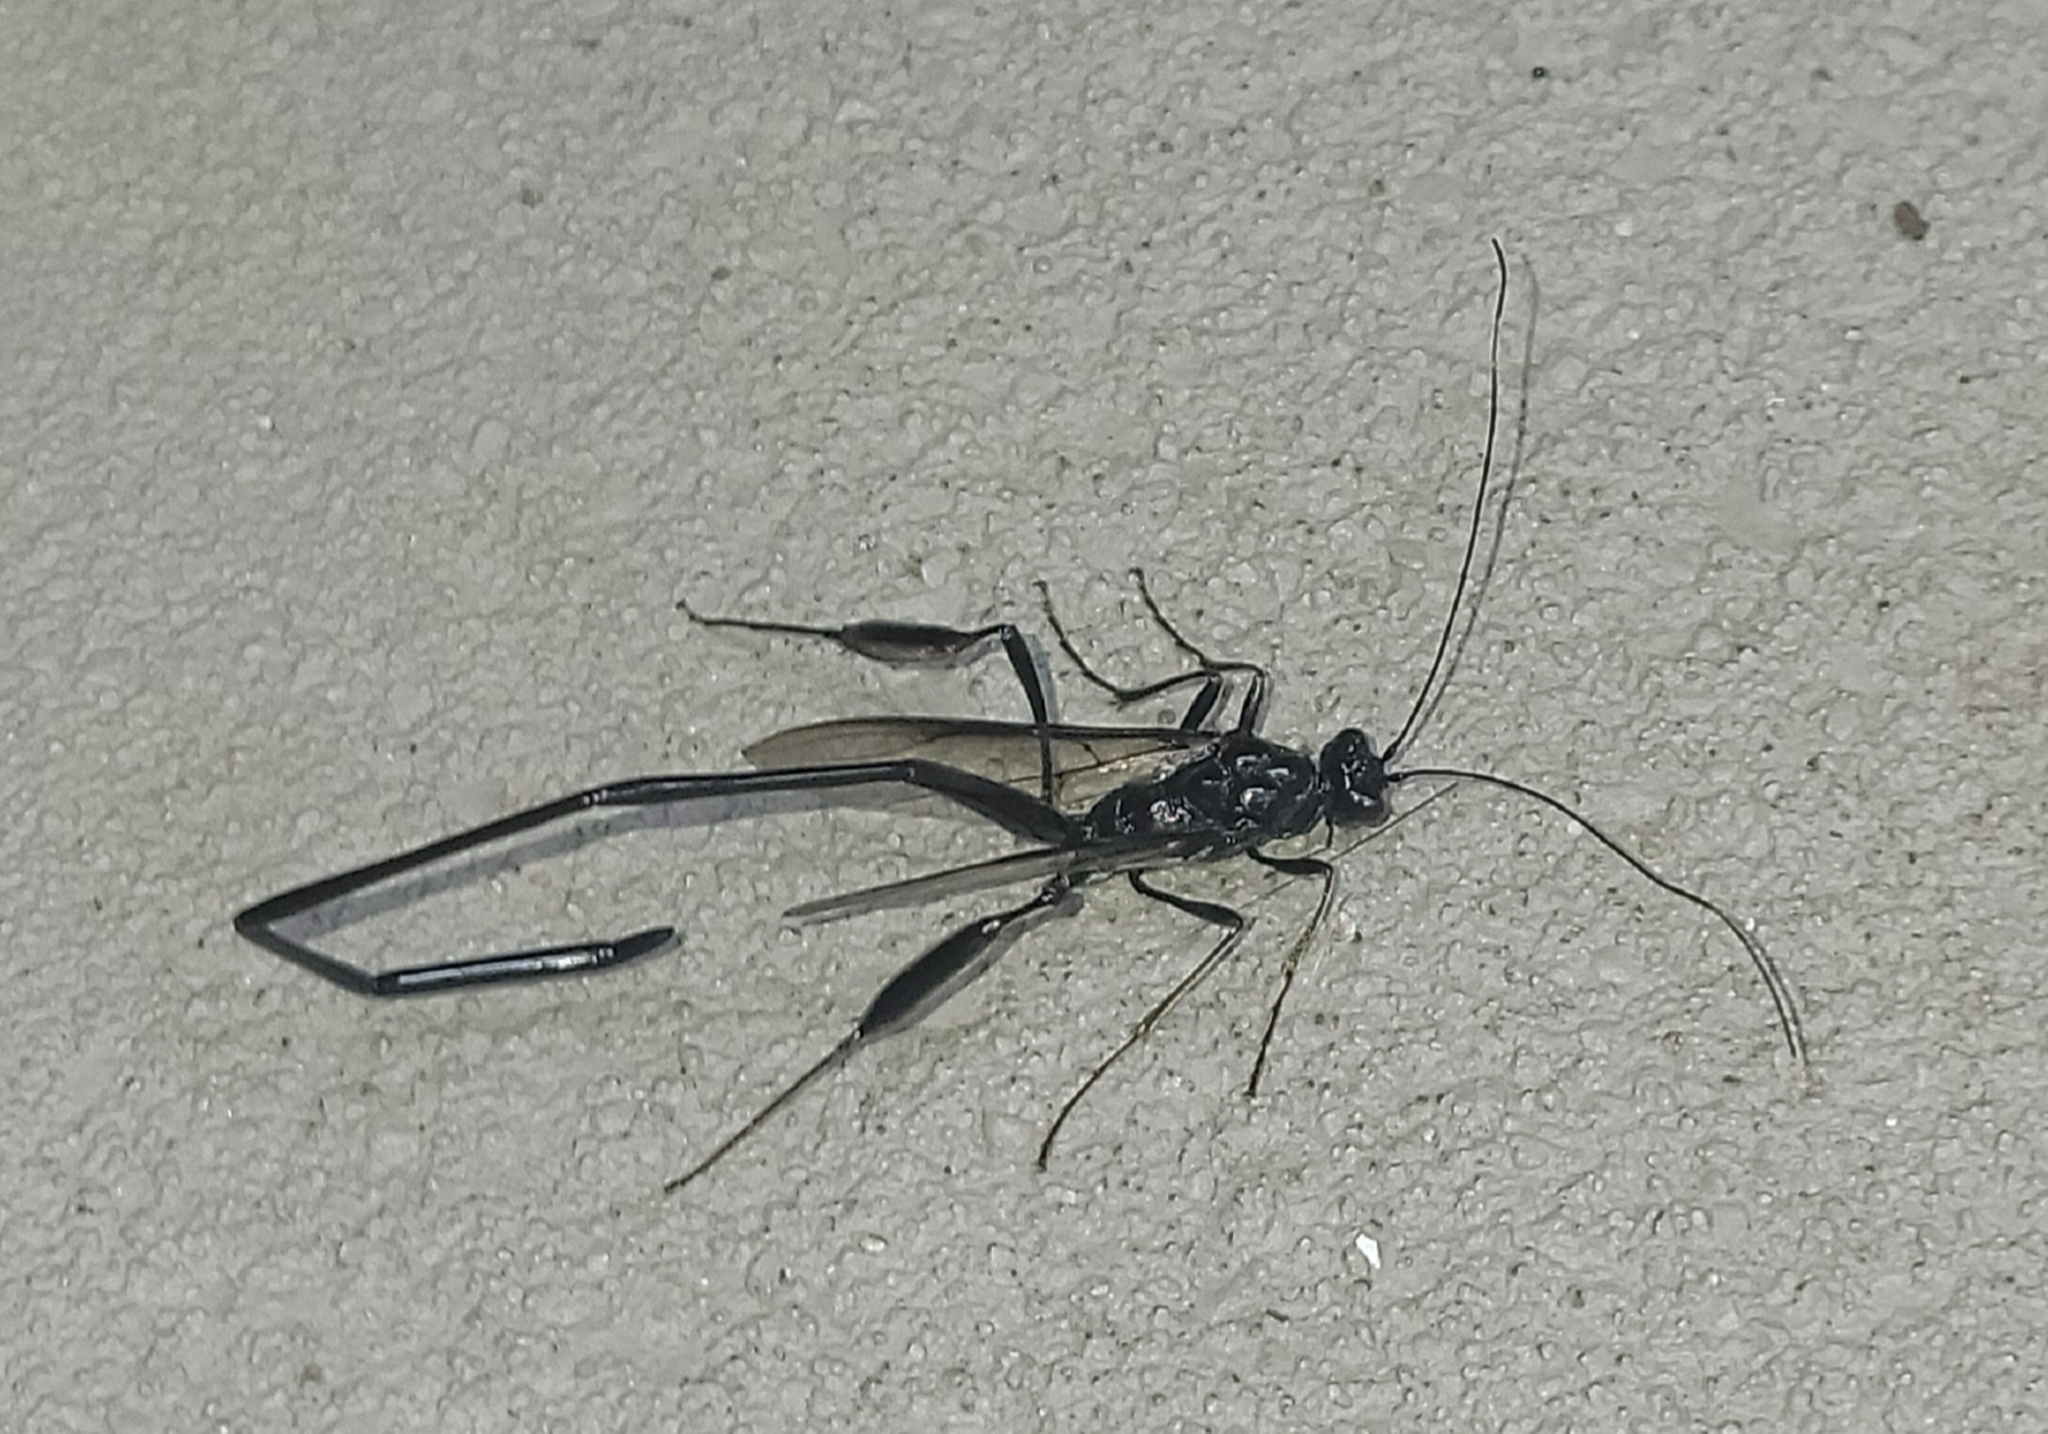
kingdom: Animalia
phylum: Arthropoda
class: Insecta
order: Hymenoptera
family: Pelecinidae
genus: Pelecinus
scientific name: Pelecinus polyturator
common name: American pelecinid wasp
